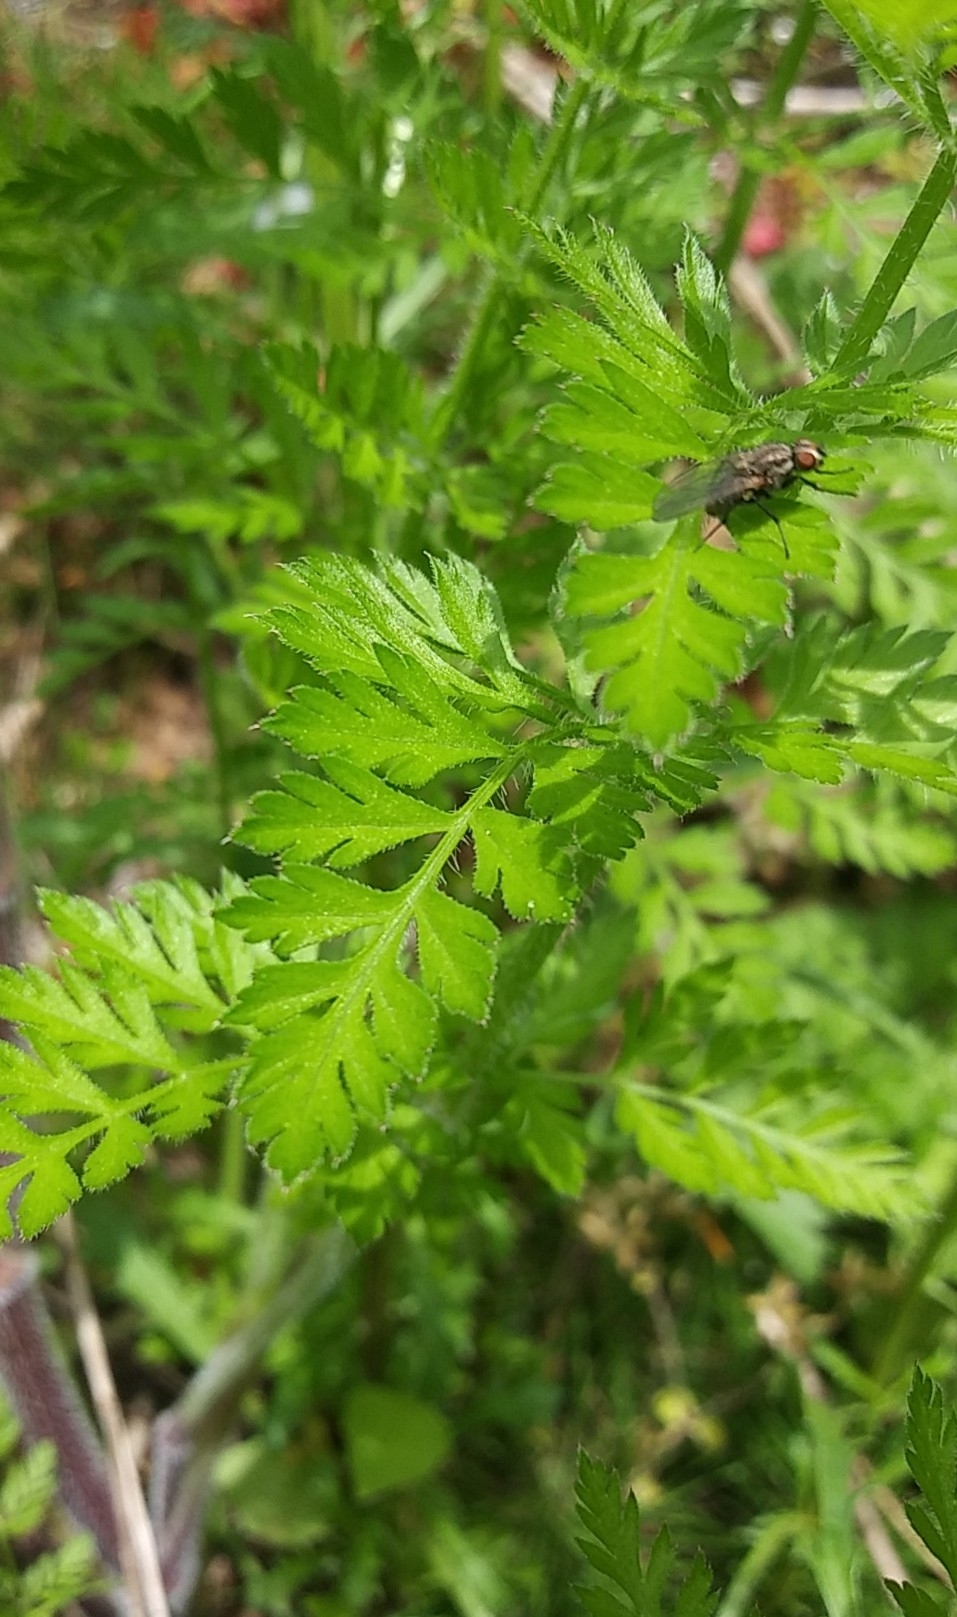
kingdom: Plantae
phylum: Tracheophyta
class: Magnoliopsida
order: Apiales
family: Apiaceae
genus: Daucus
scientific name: Daucus carota
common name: Wild carrot
